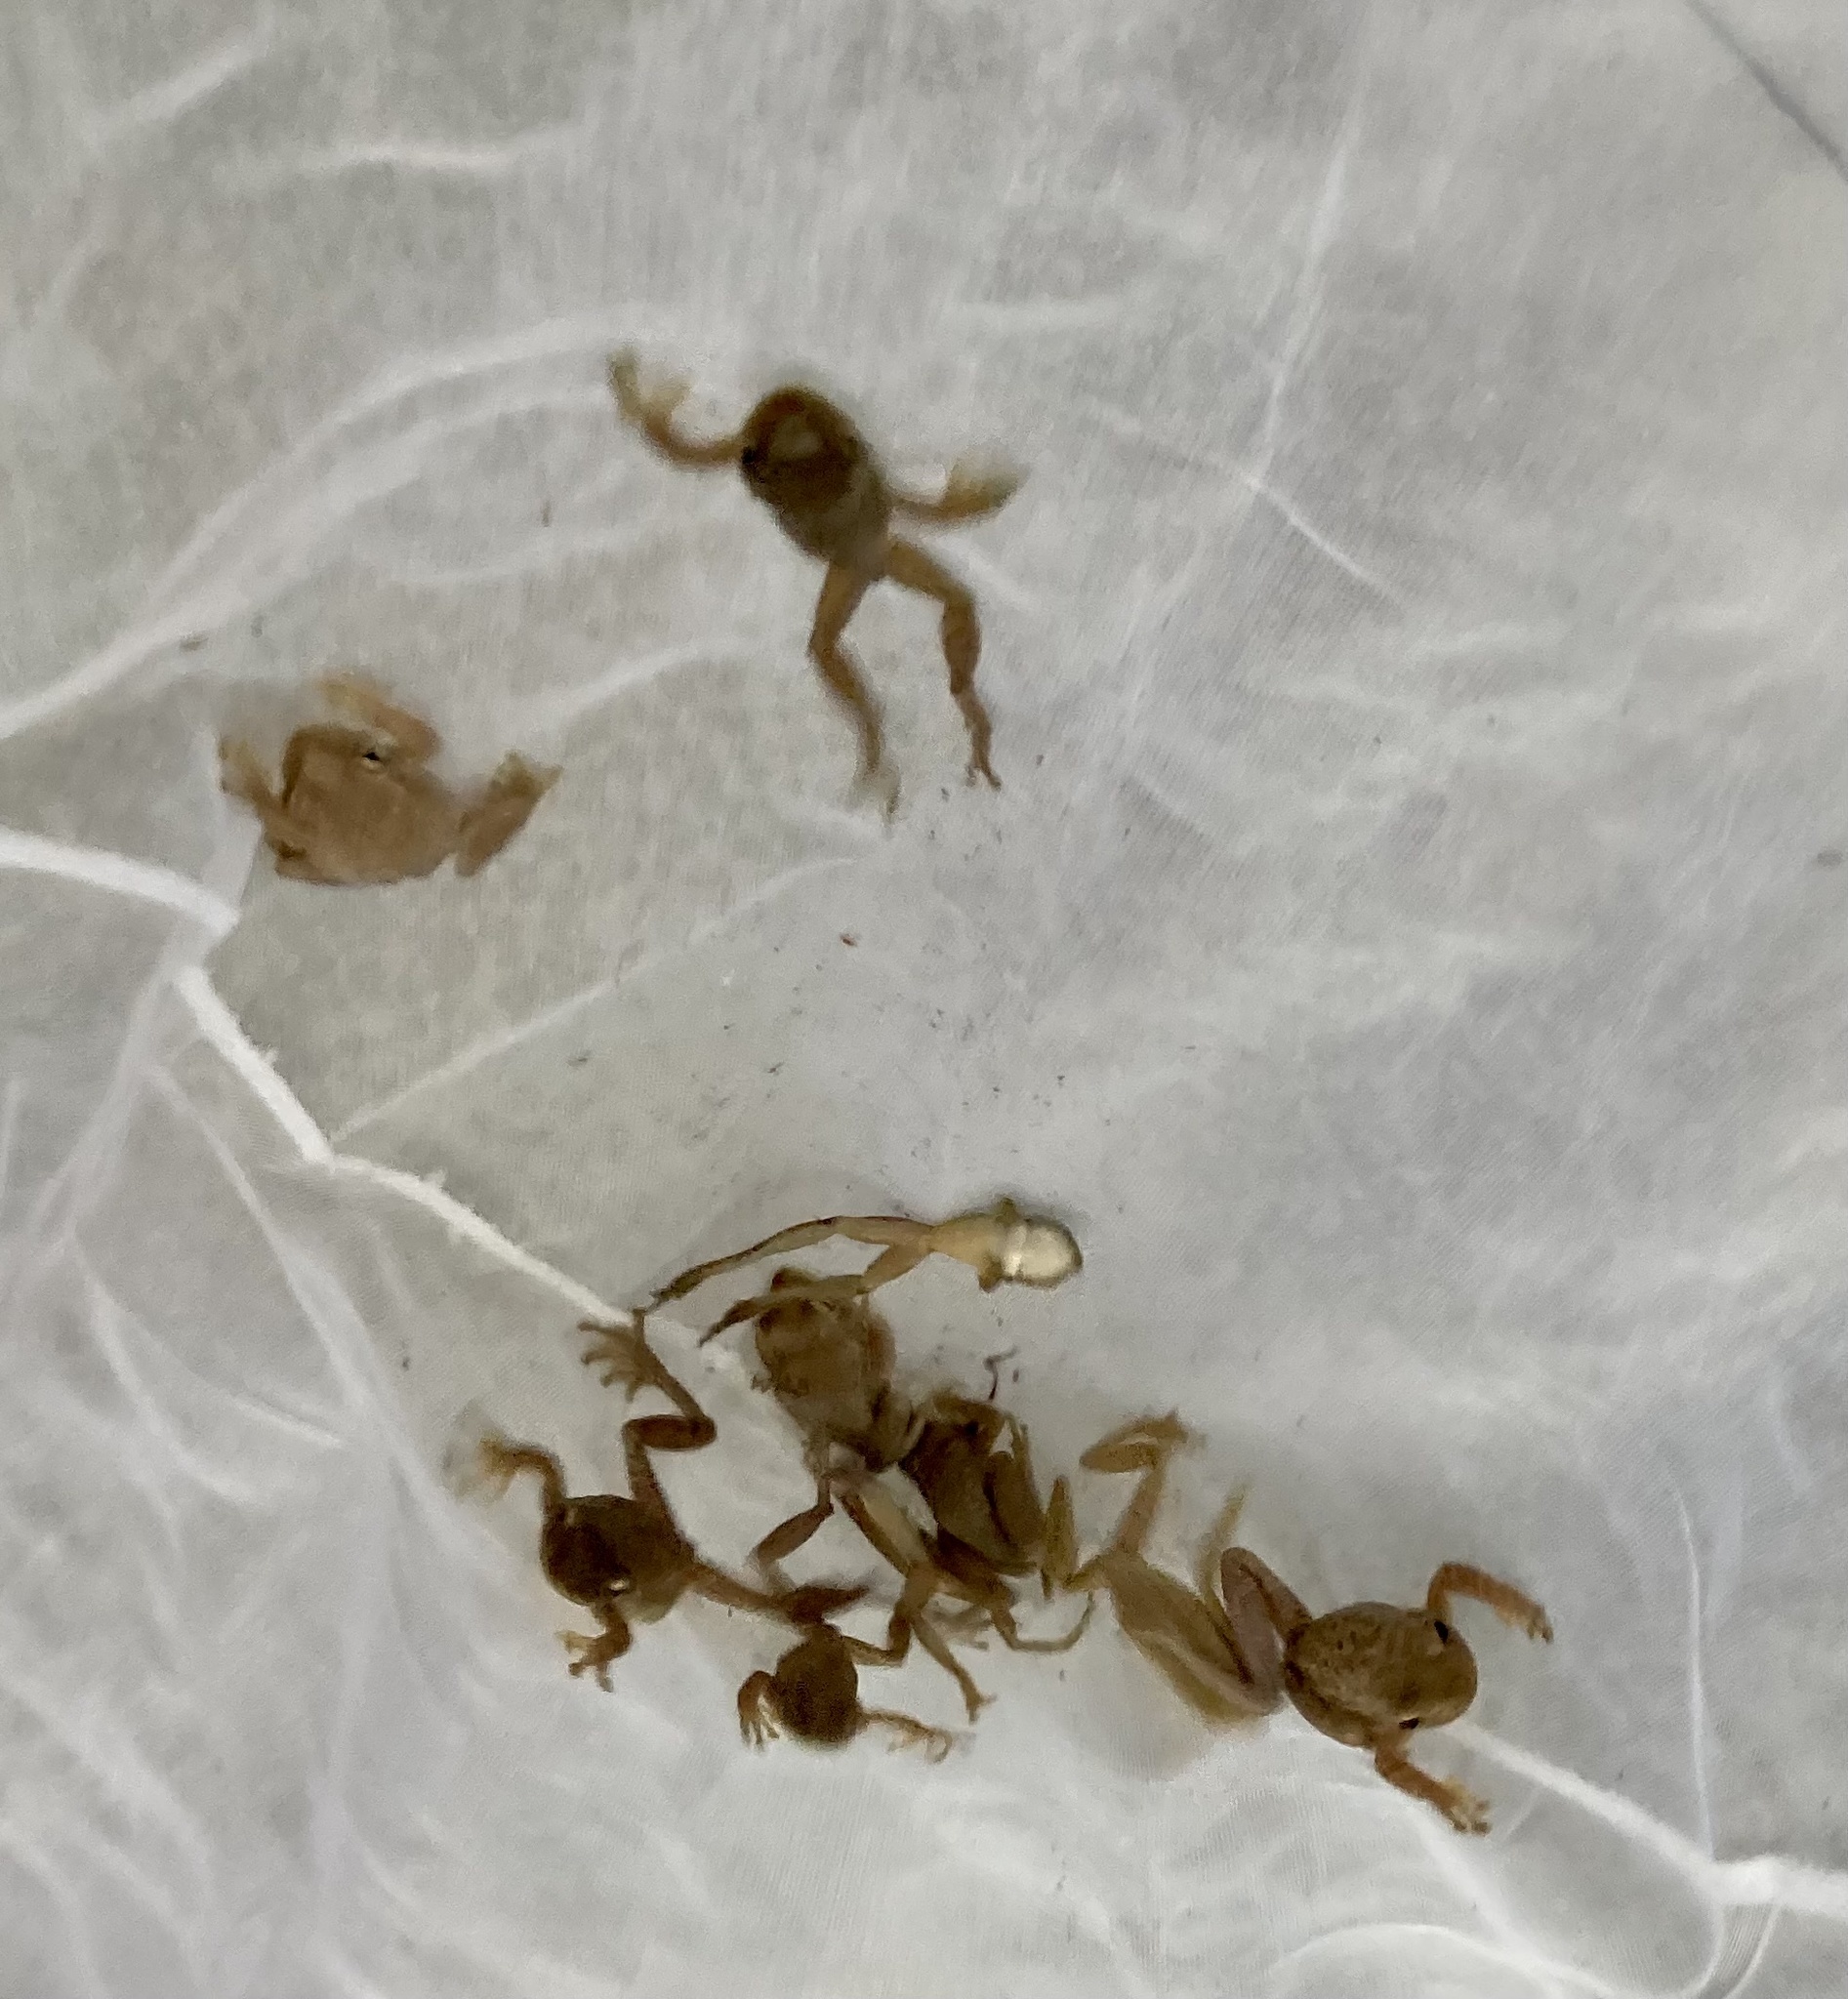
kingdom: Animalia
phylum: Chordata
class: Amphibia
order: Anura
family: Hylidae
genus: Osteopilus
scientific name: Osteopilus septentrionalis
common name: Cuban treefrog
